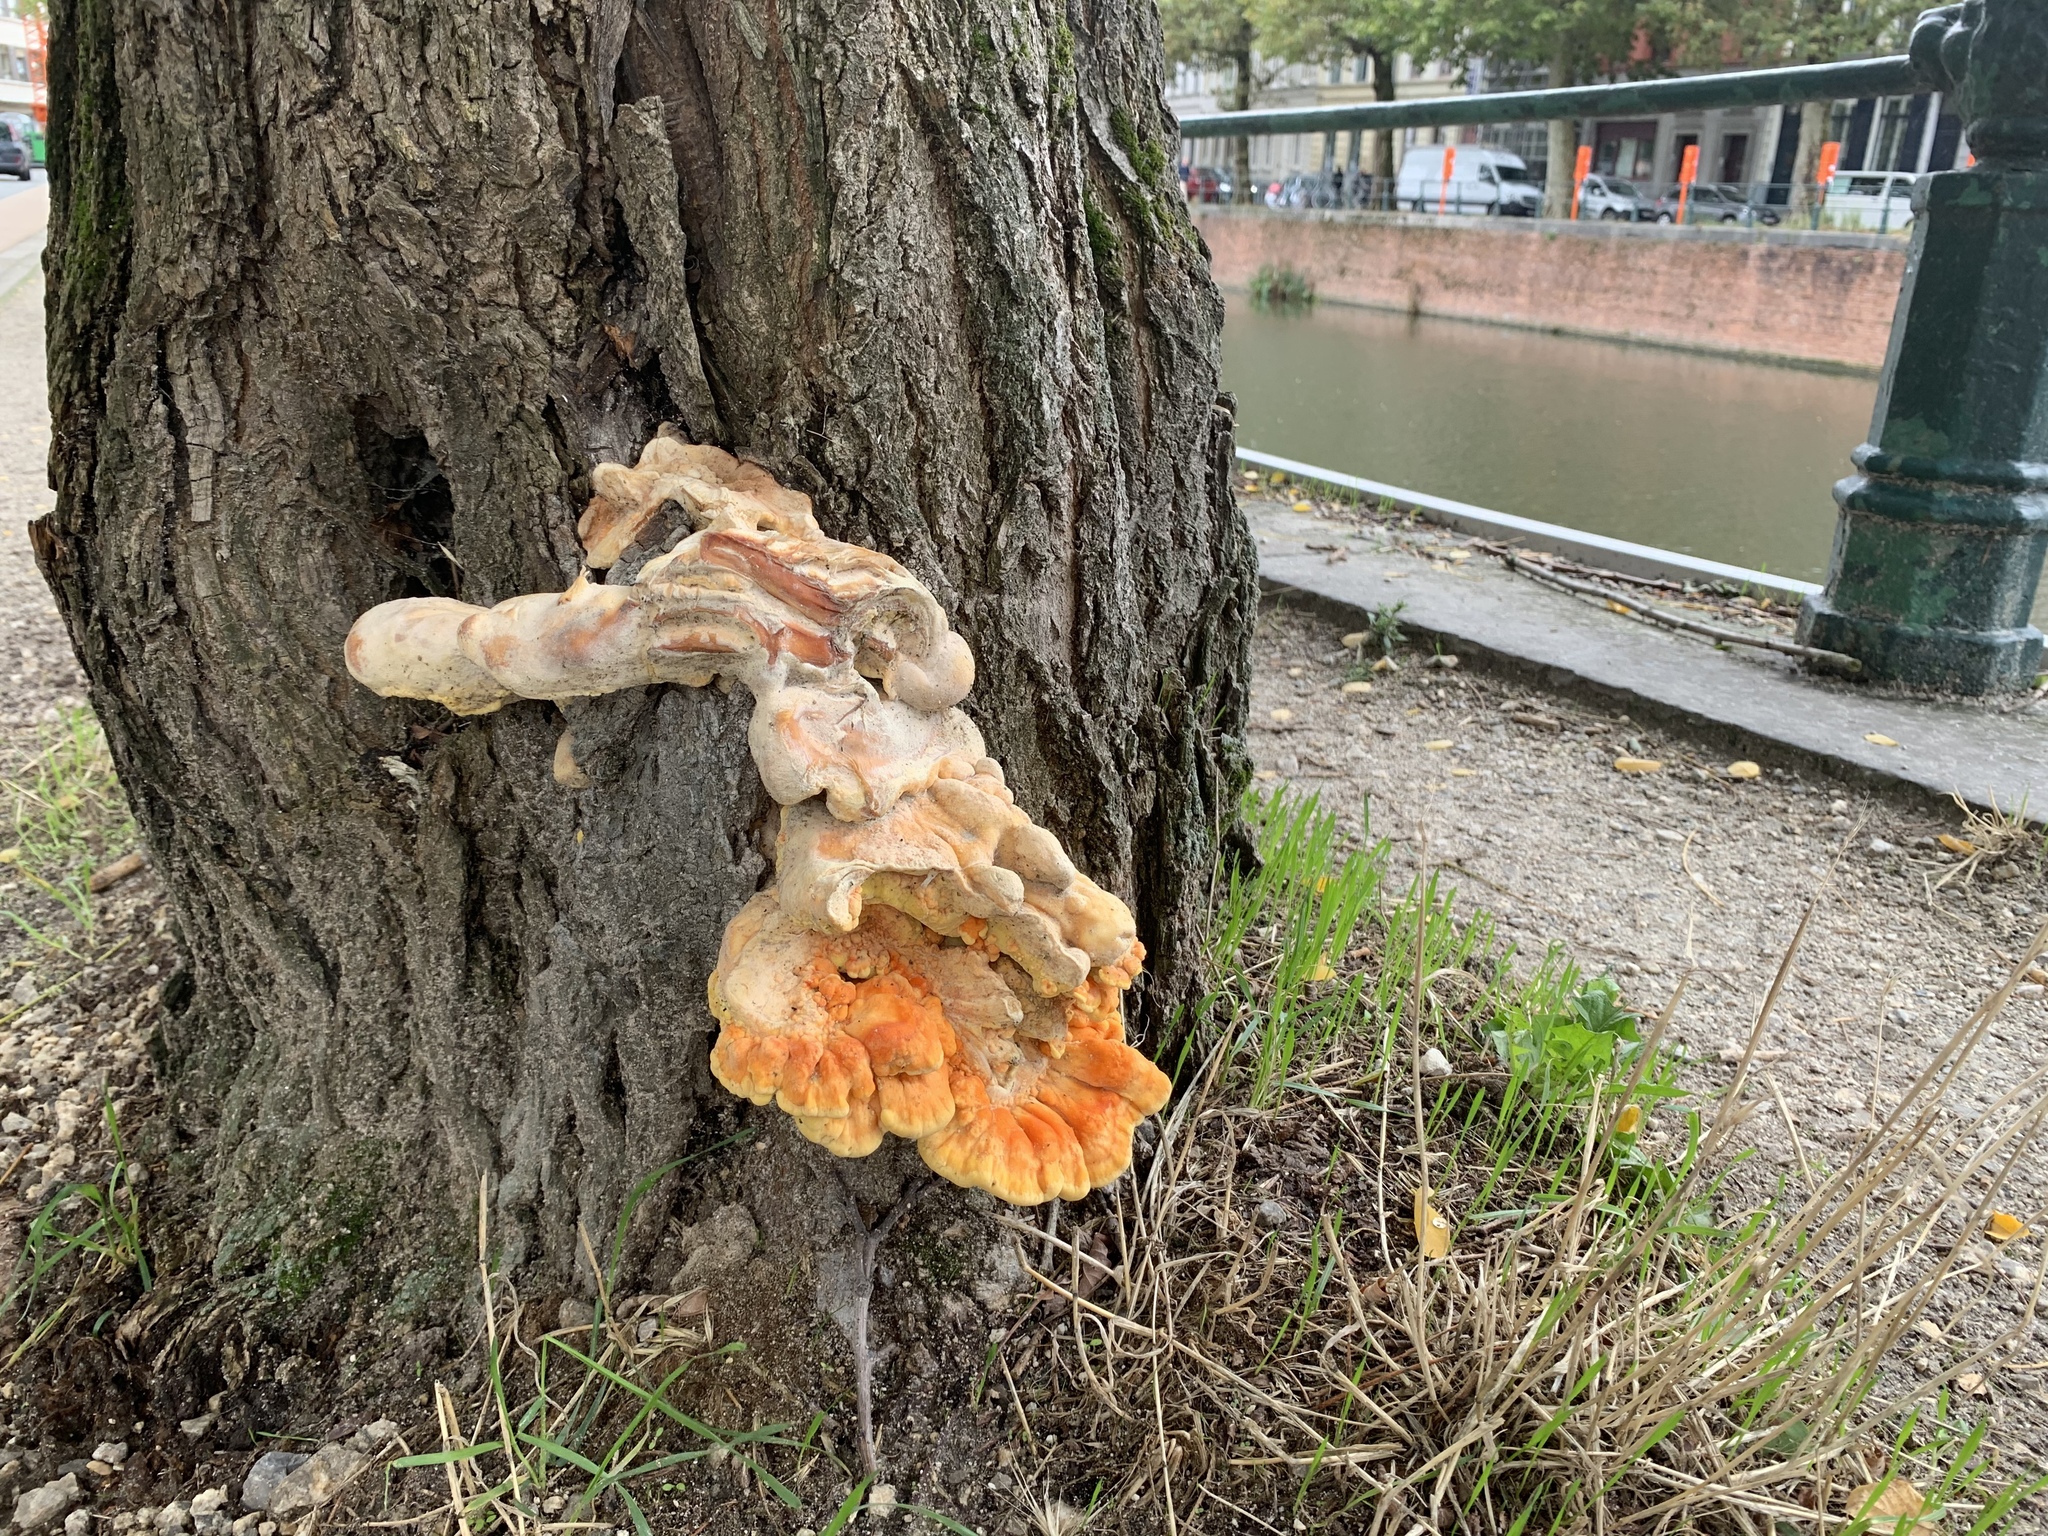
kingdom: Fungi
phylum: Basidiomycota
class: Agaricomycetes
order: Polyporales
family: Laetiporaceae
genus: Laetiporus
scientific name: Laetiporus sulphureus
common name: Chicken of the woods
